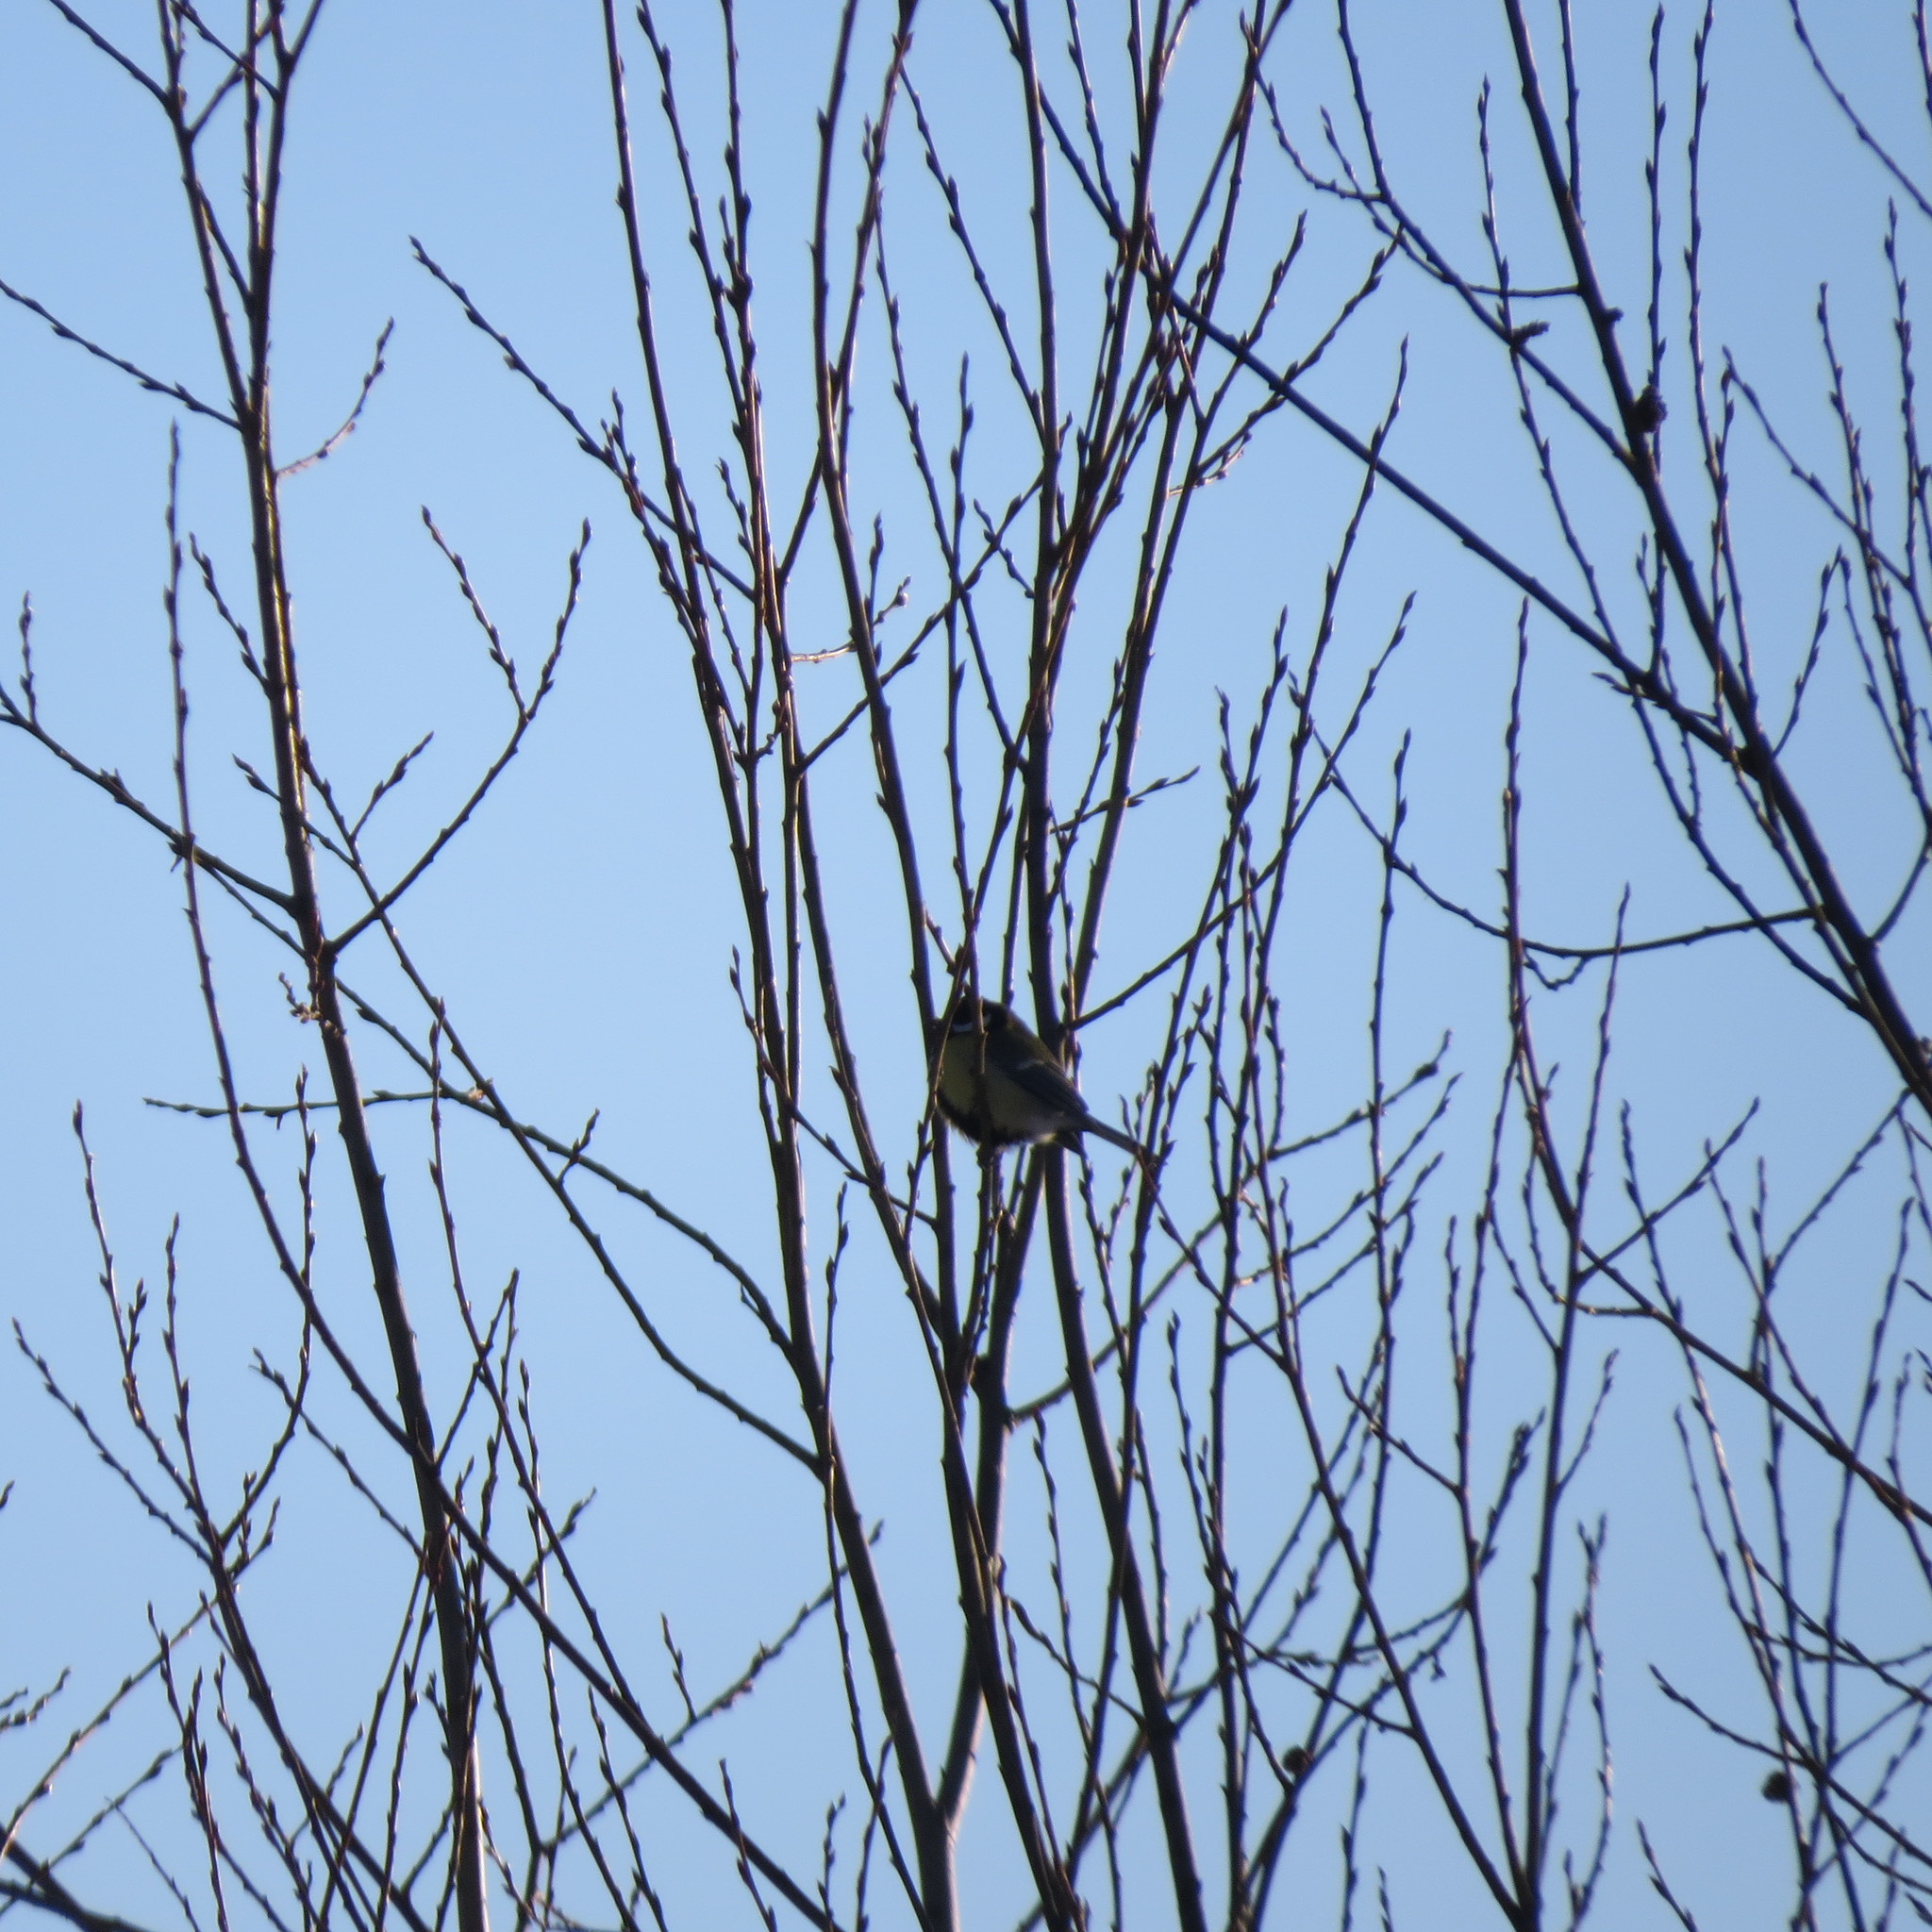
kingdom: Animalia
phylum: Chordata
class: Aves
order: Passeriformes
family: Paridae
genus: Parus
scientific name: Parus major
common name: Great tit
